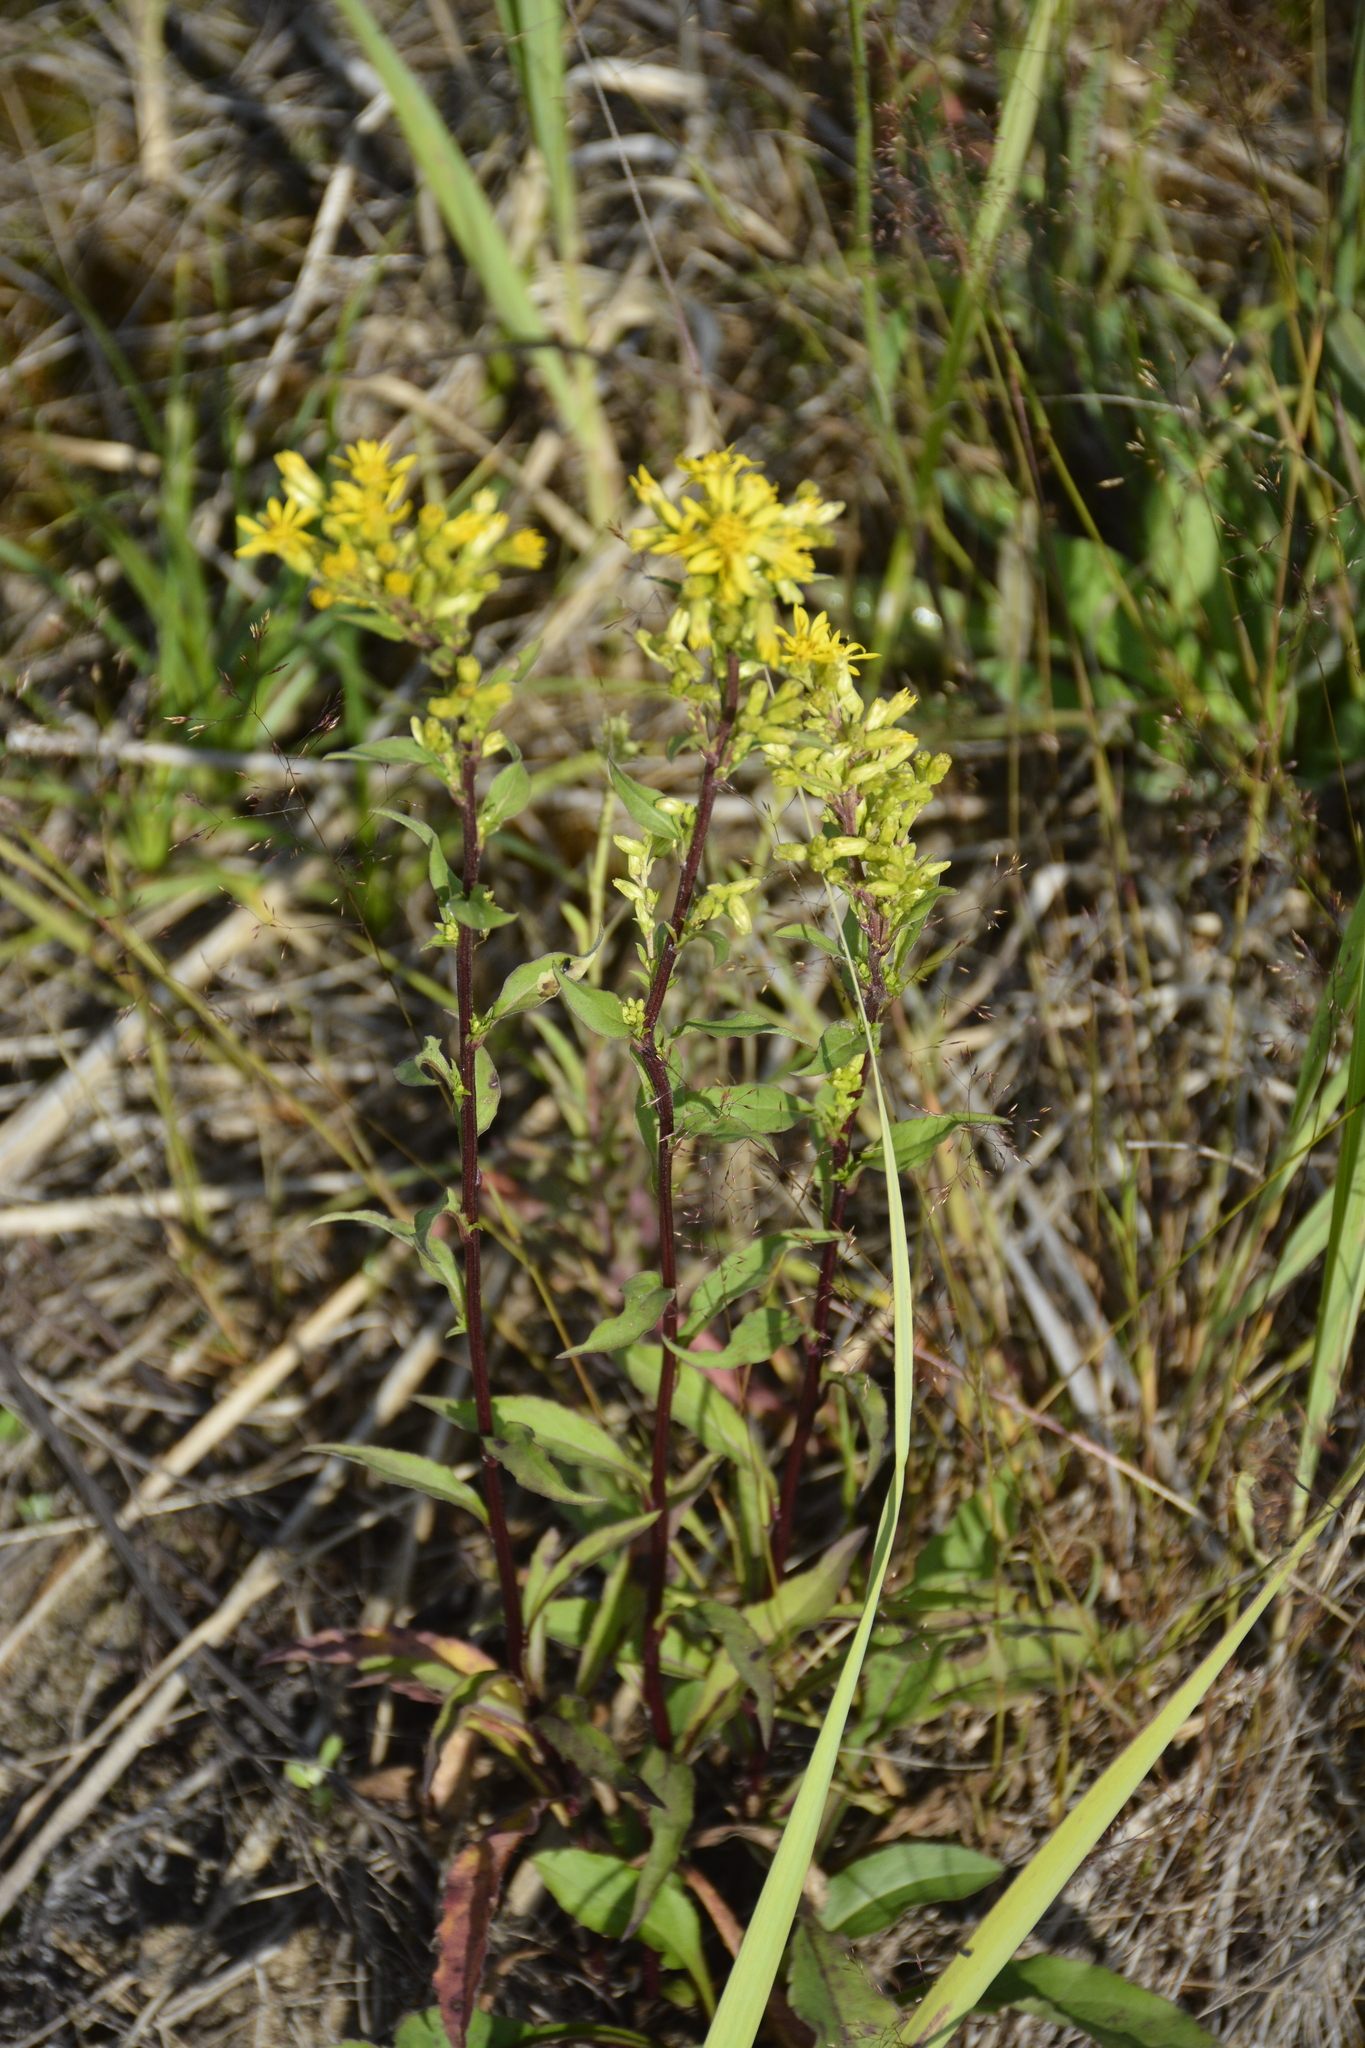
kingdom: Plantae
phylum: Tracheophyta
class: Magnoliopsida
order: Asterales
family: Asteraceae
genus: Solidago
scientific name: Solidago virgaurea
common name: Goldenrod
